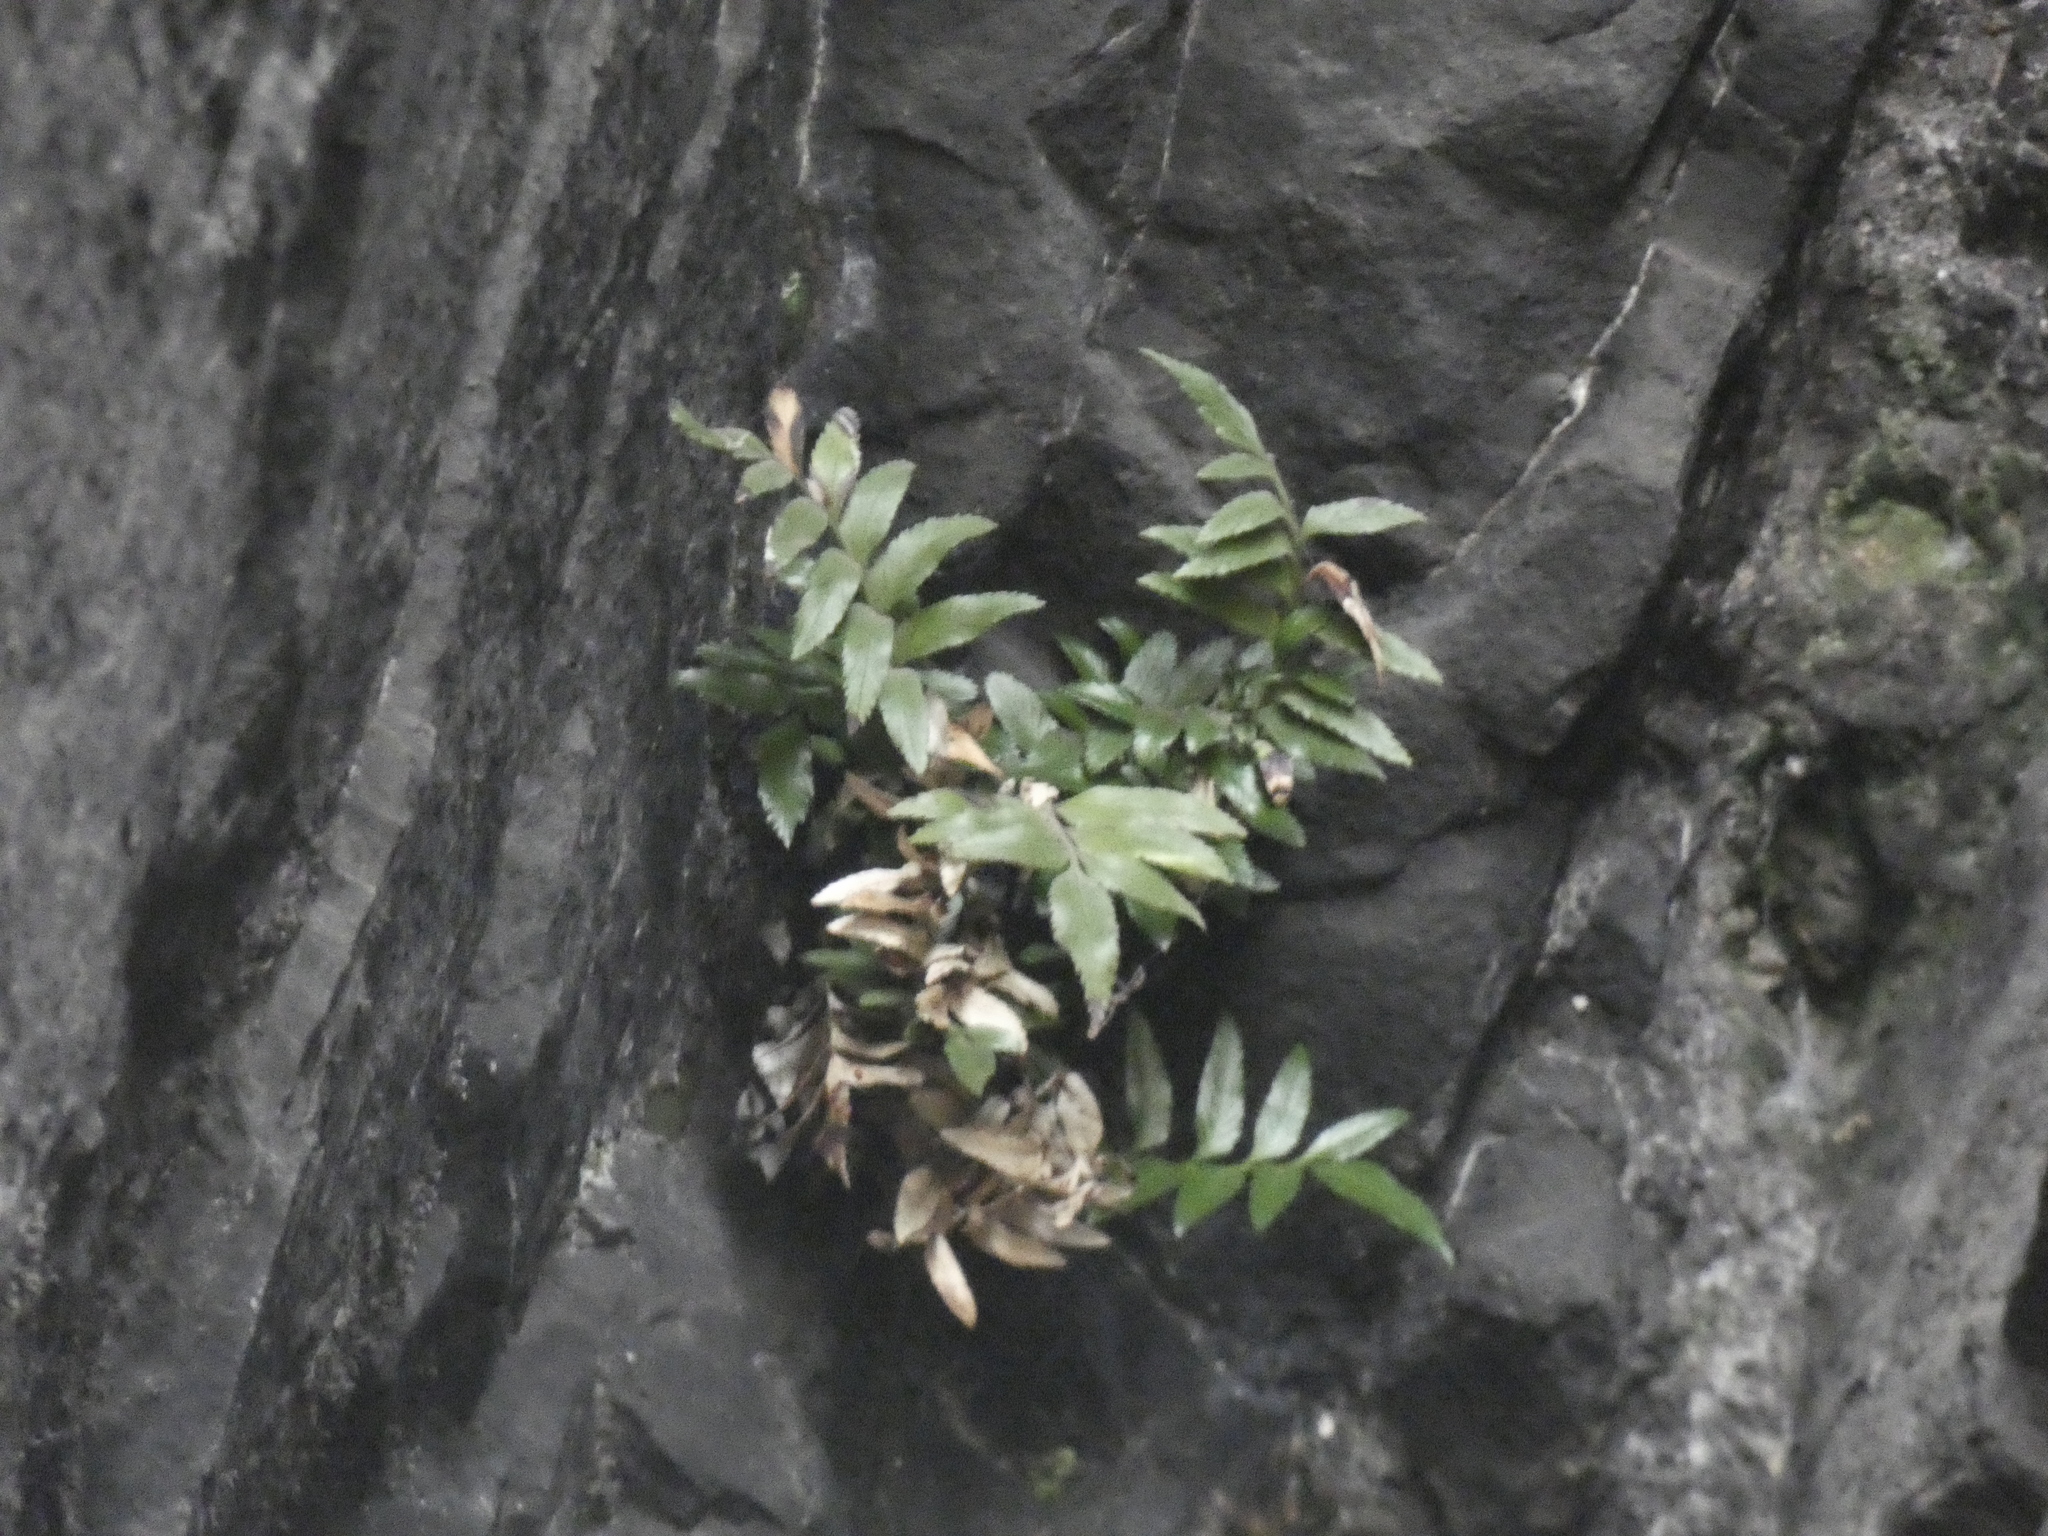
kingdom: Plantae
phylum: Tracheophyta
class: Polypodiopsida
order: Polypodiales
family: Aspleniaceae
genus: Asplenium
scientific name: Asplenium sphenoides
